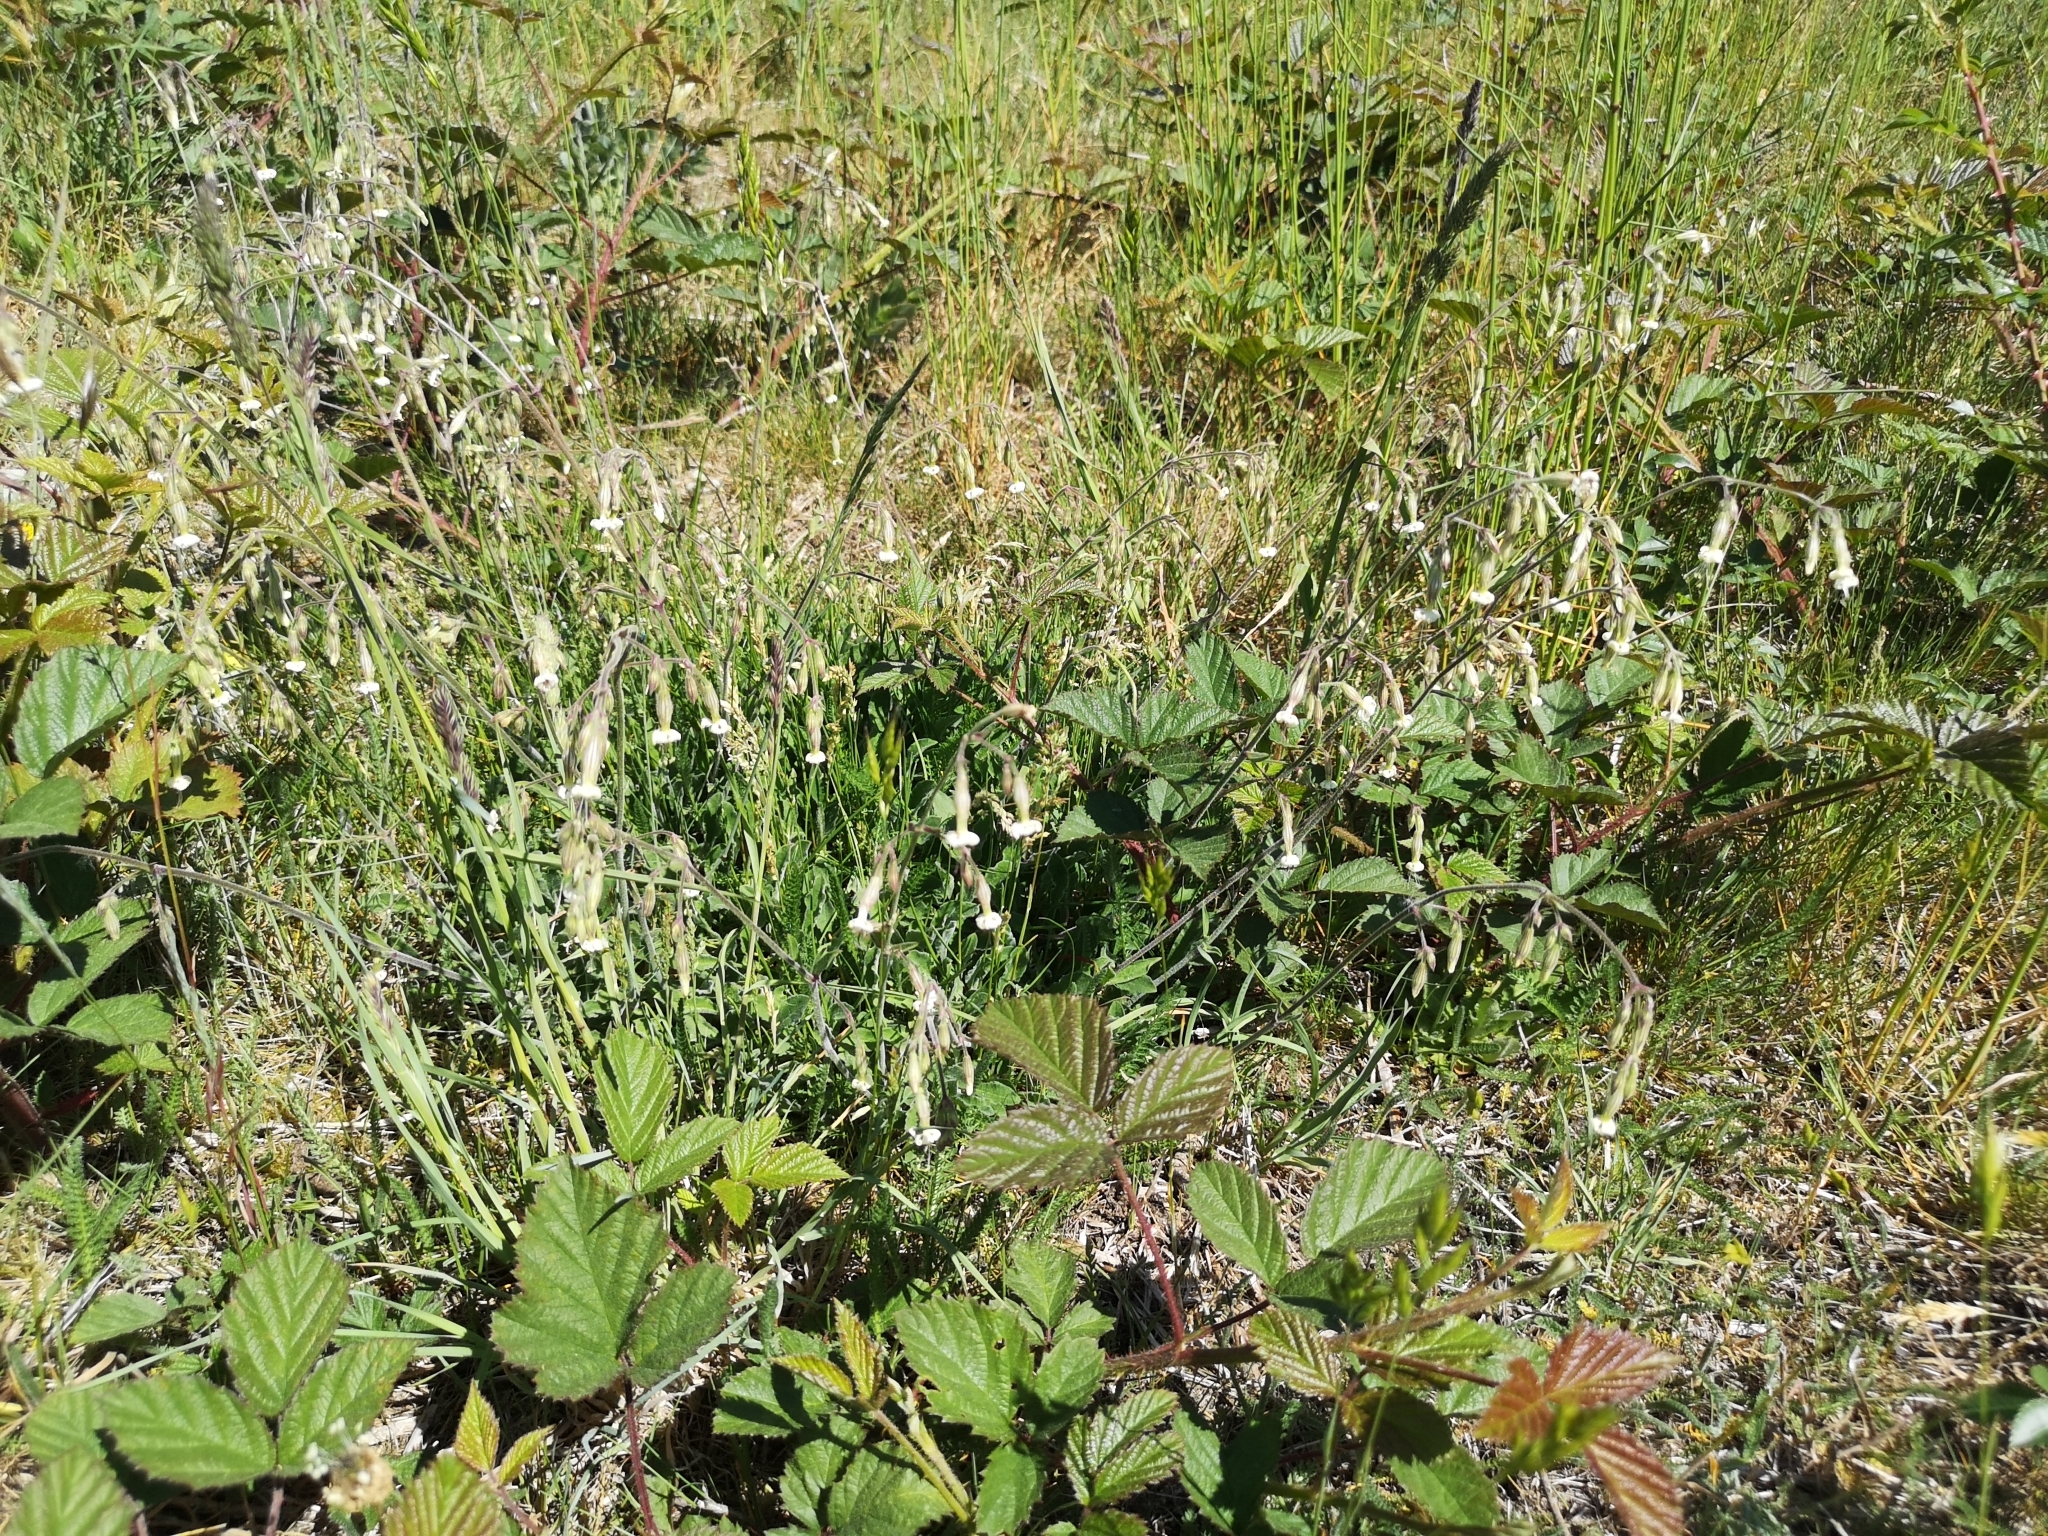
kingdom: Plantae
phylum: Tracheophyta
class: Magnoliopsida
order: Caryophyllales
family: Caryophyllaceae
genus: Silene
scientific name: Silene nutans
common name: Nottingham catchfly
